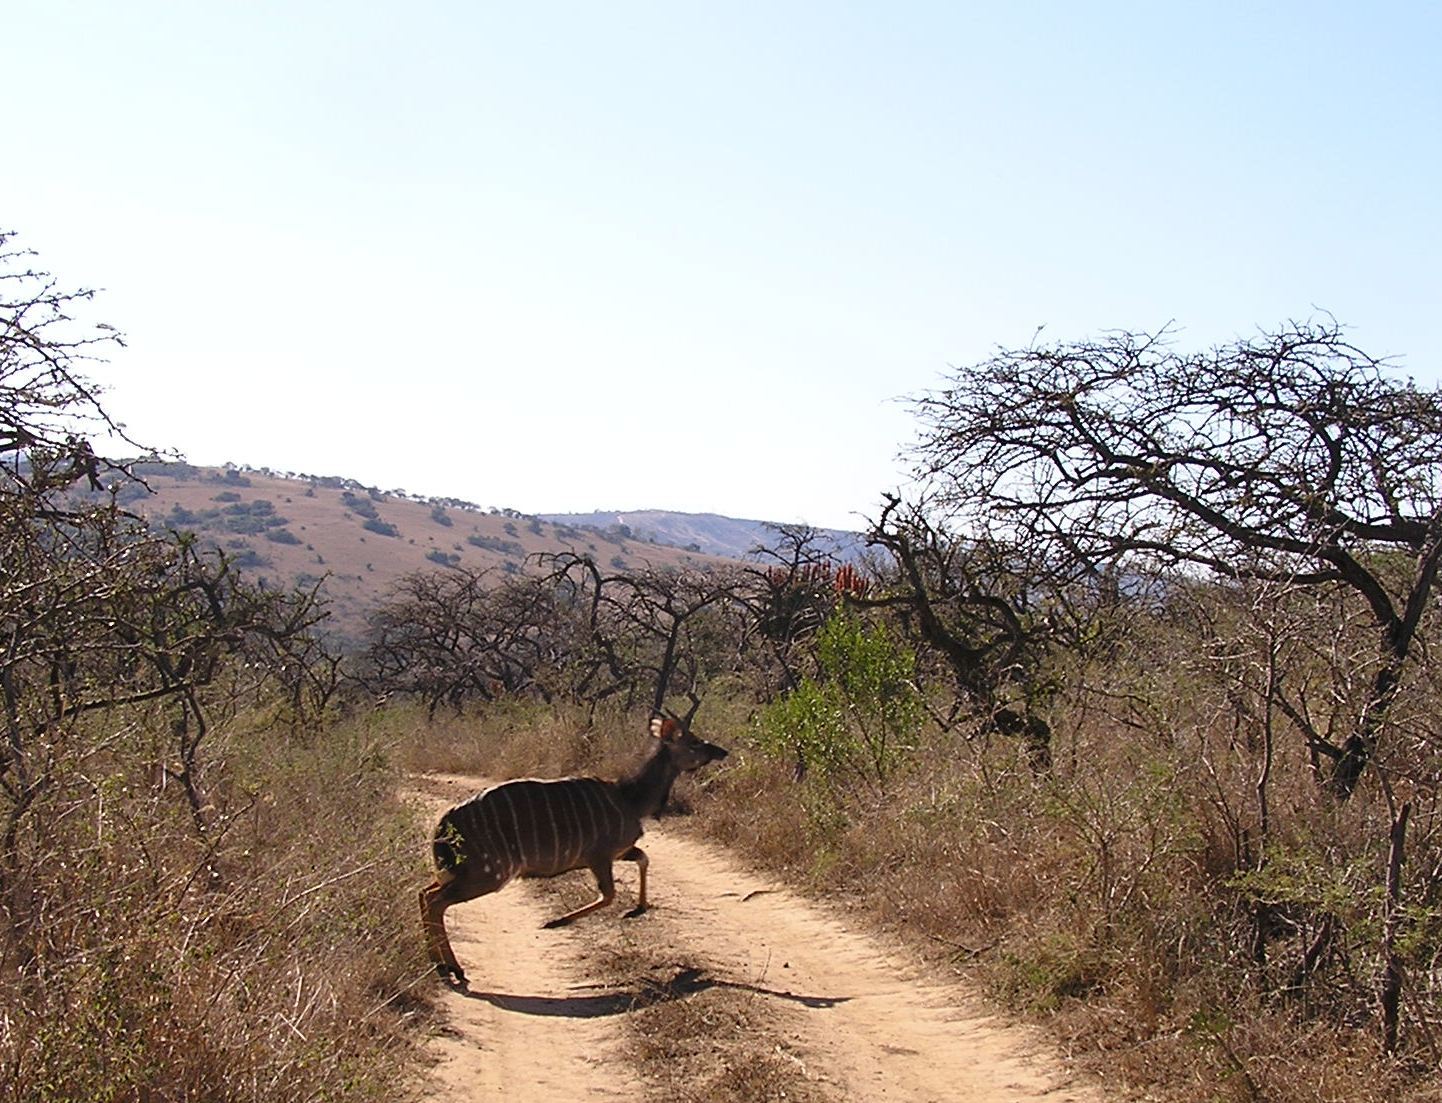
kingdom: Animalia
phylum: Chordata
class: Mammalia
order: Artiodactyla
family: Bovidae
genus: Tragelaphus
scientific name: Tragelaphus angasii
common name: Nyala
